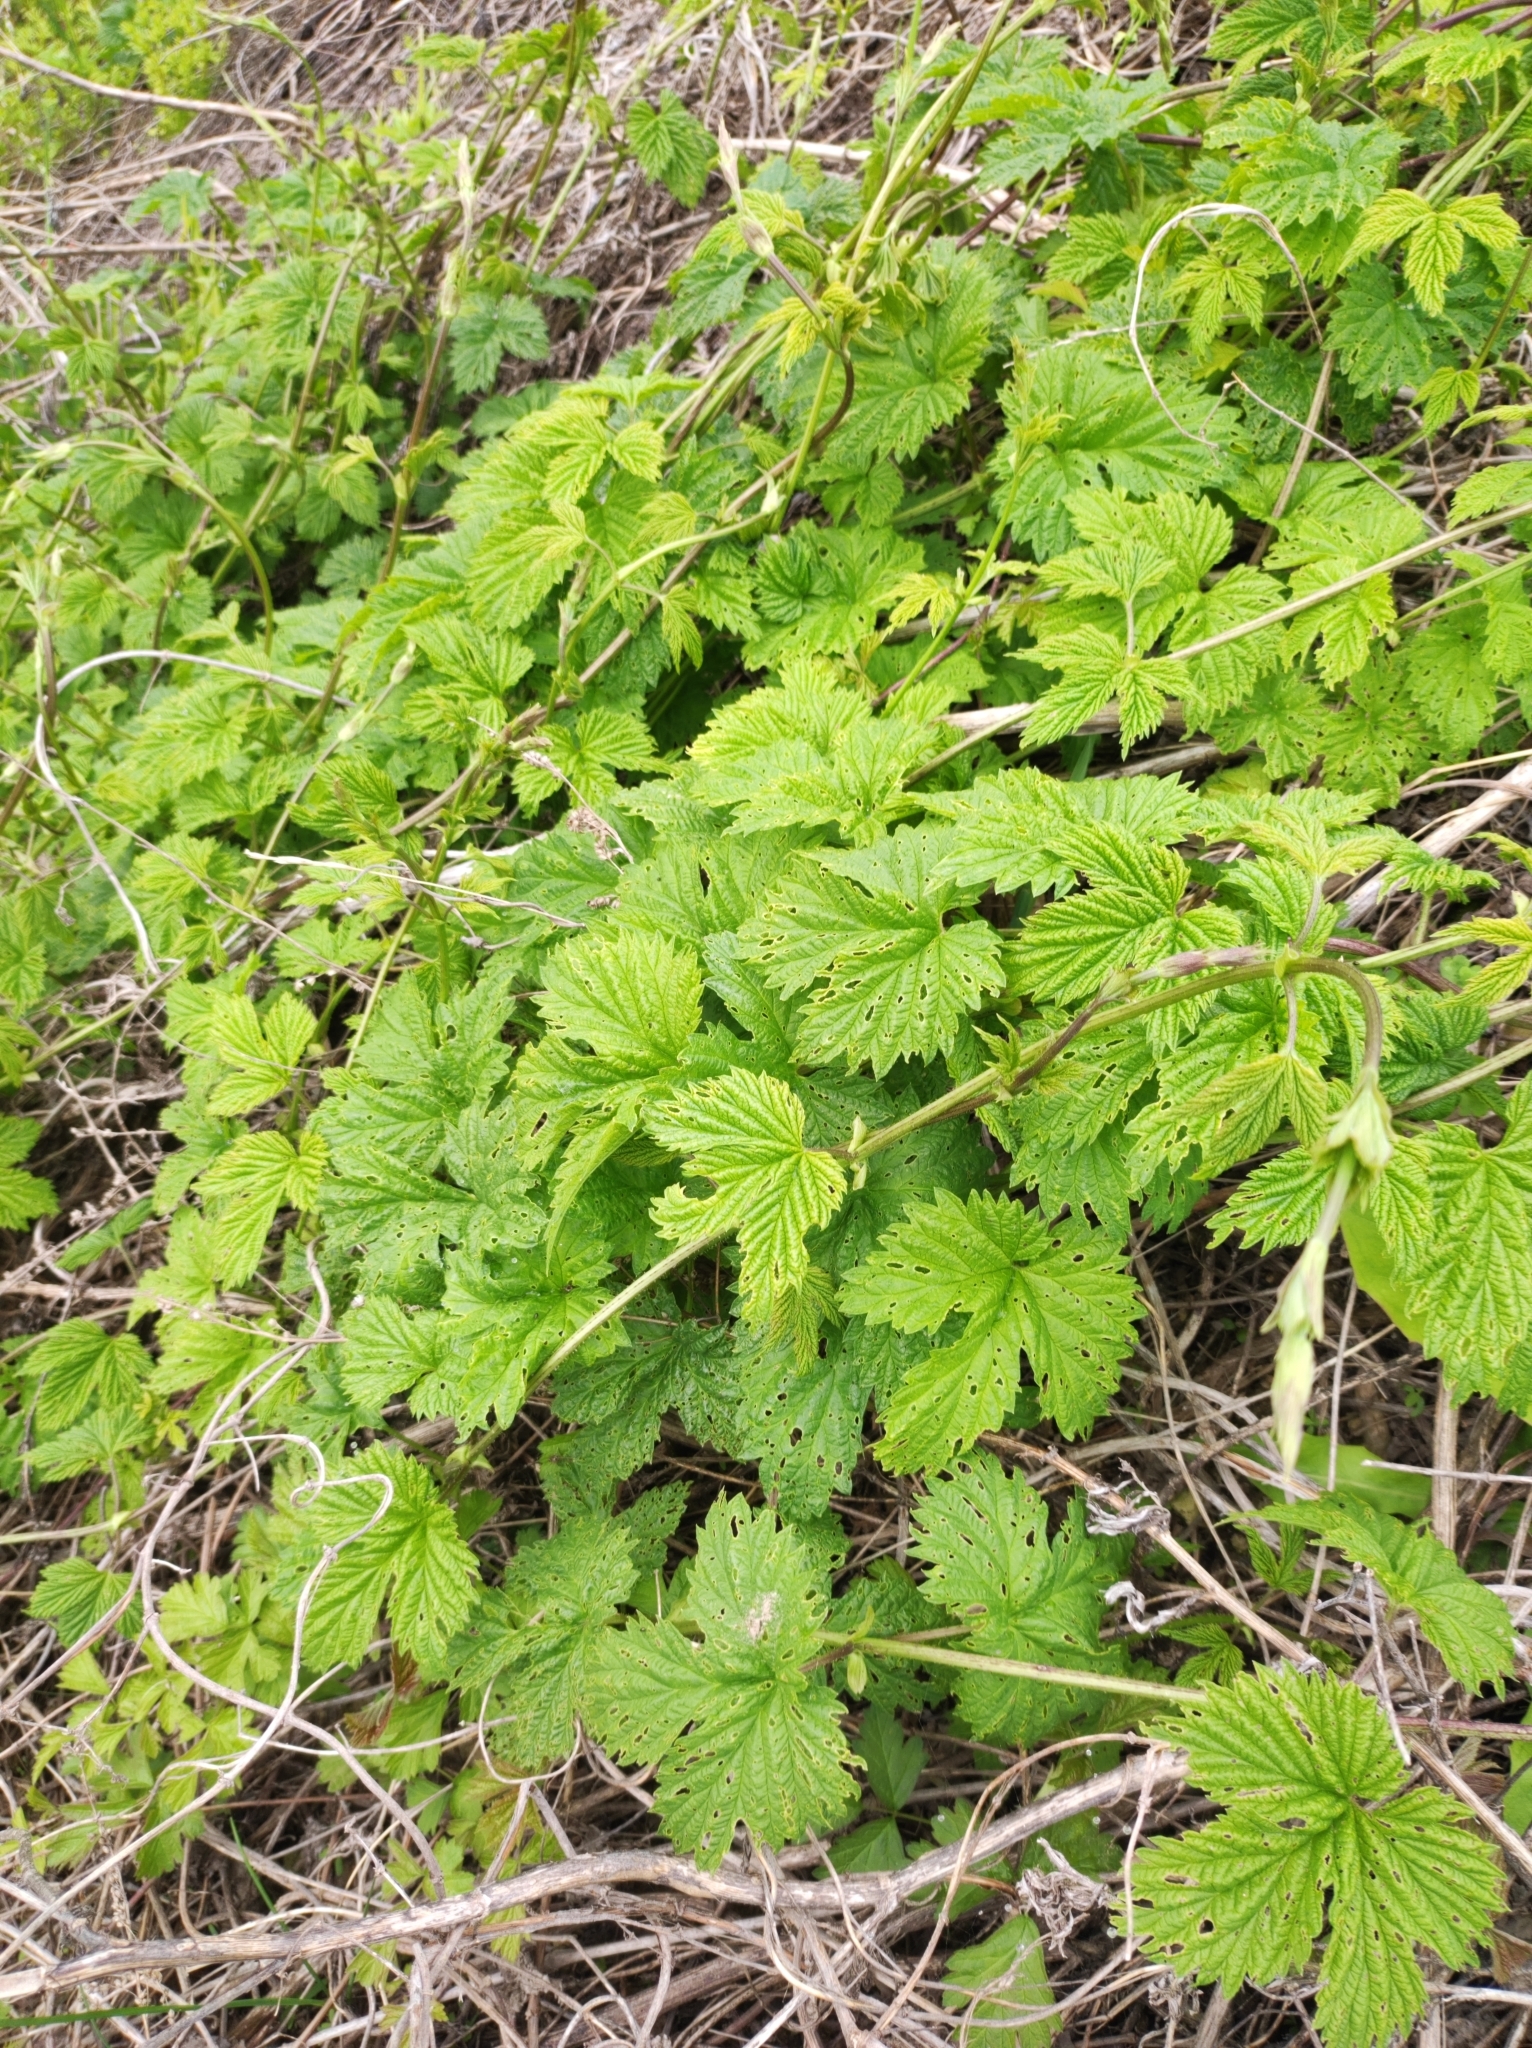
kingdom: Plantae
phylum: Tracheophyta
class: Magnoliopsida
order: Rosales
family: Cannabaceae
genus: Humulus
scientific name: Humulus lupulus
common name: Hop
